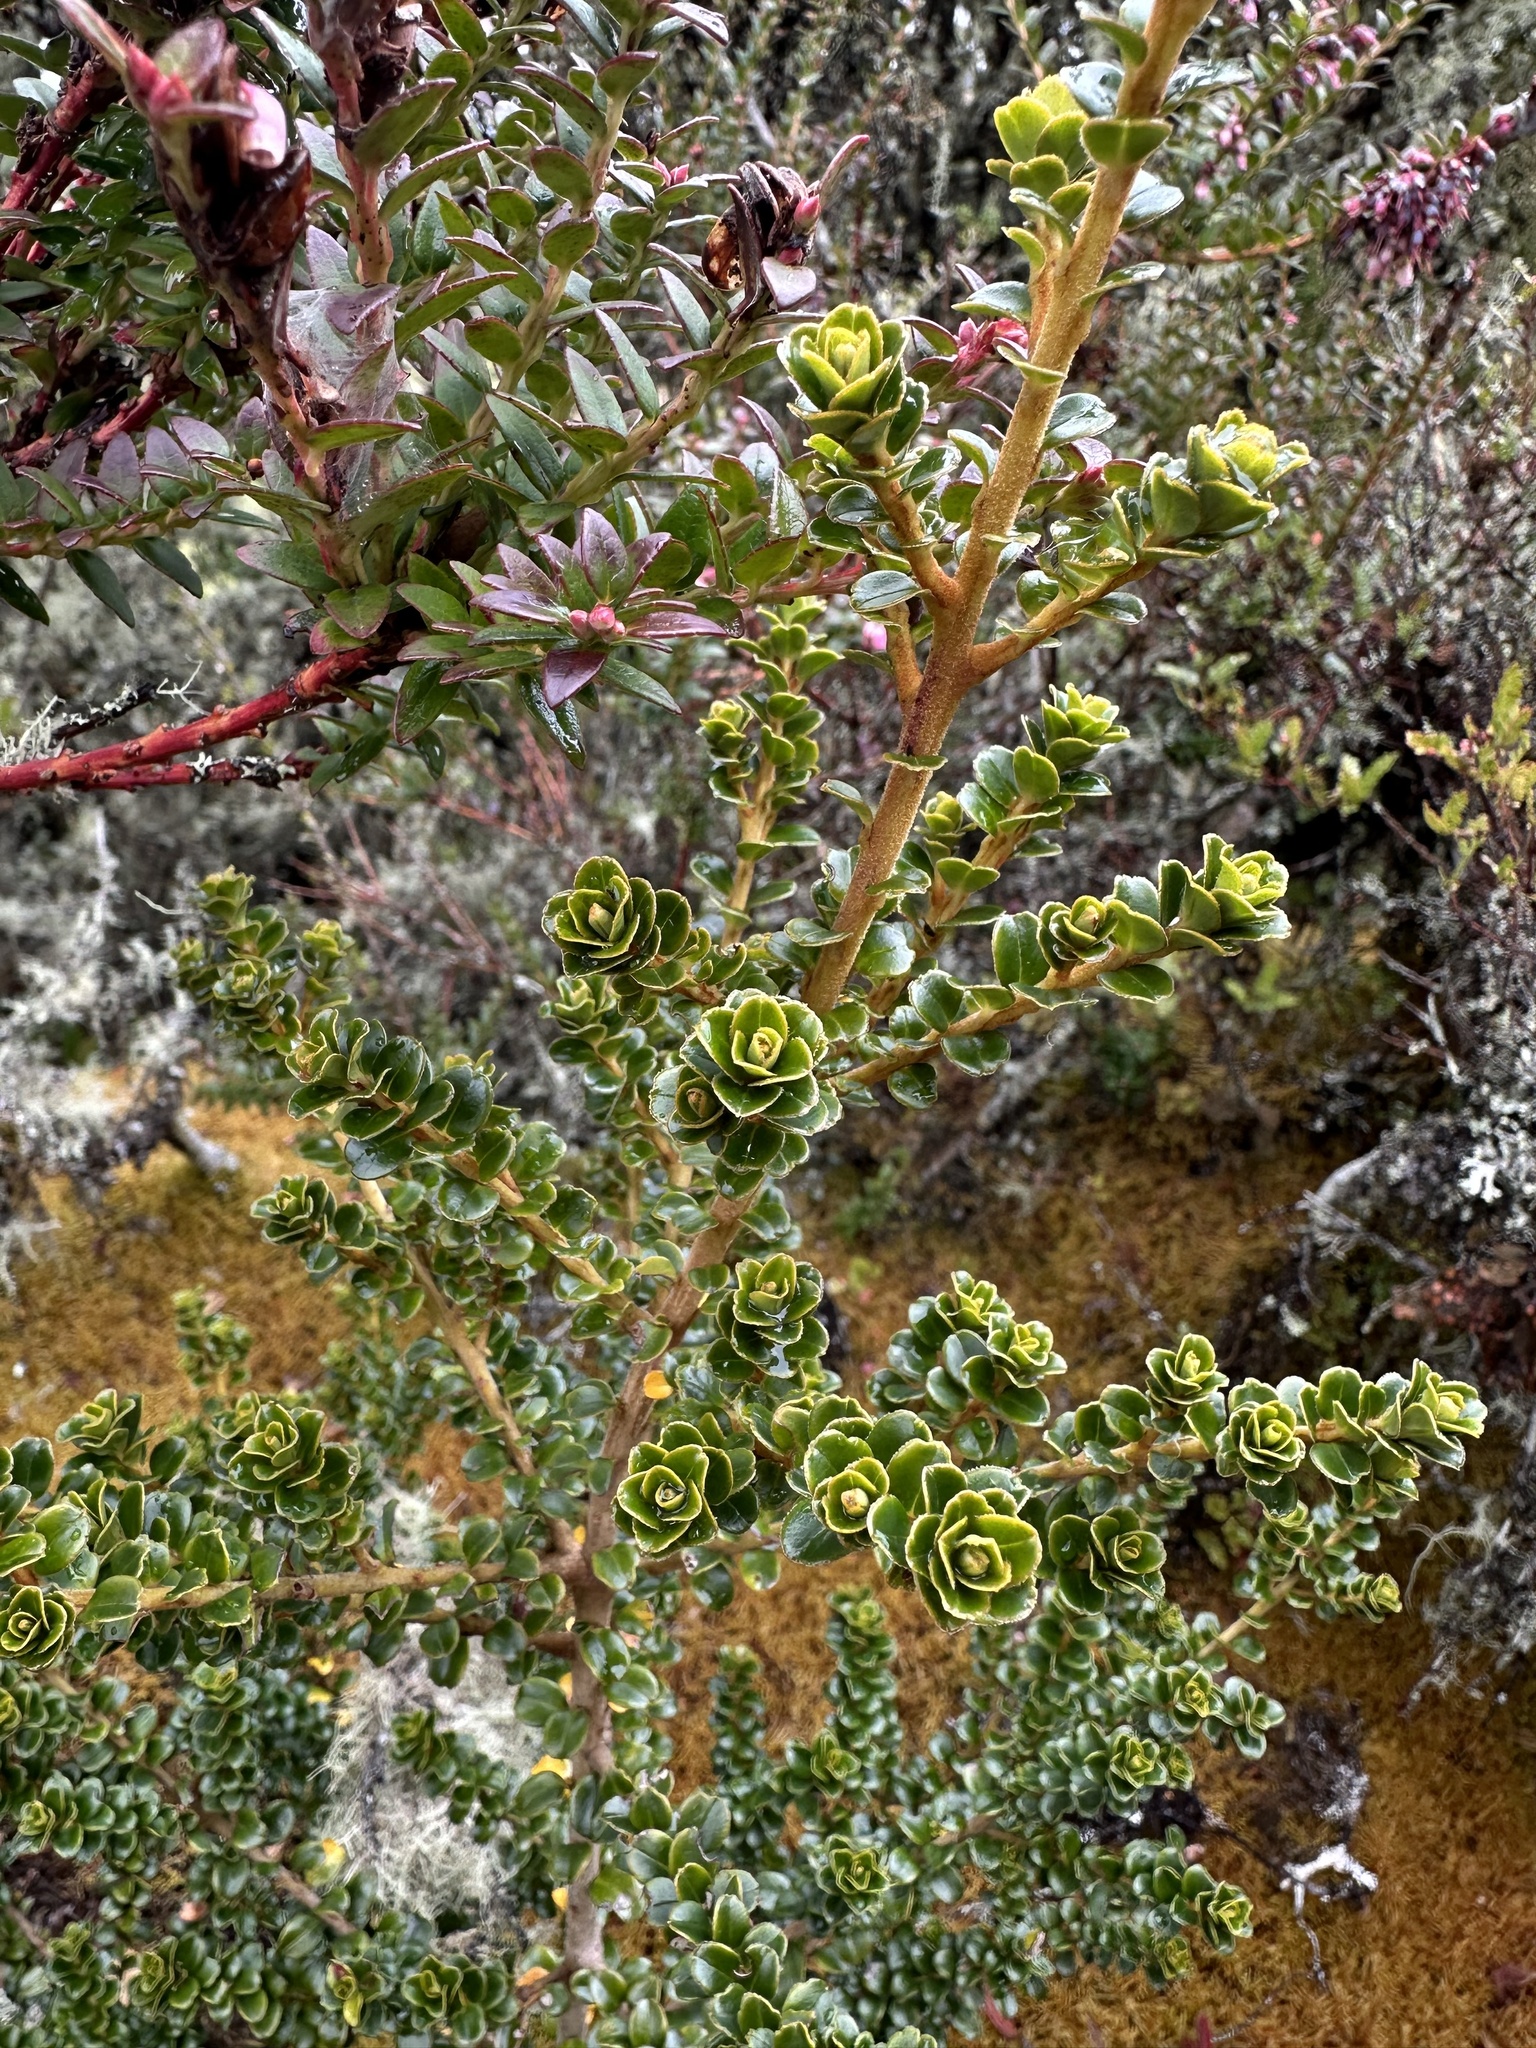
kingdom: Plantae
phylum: Tracheophyta
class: Magnoliopsida
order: Ericales
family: Primulaceae
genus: Myrsine
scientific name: Myrsine dependens
